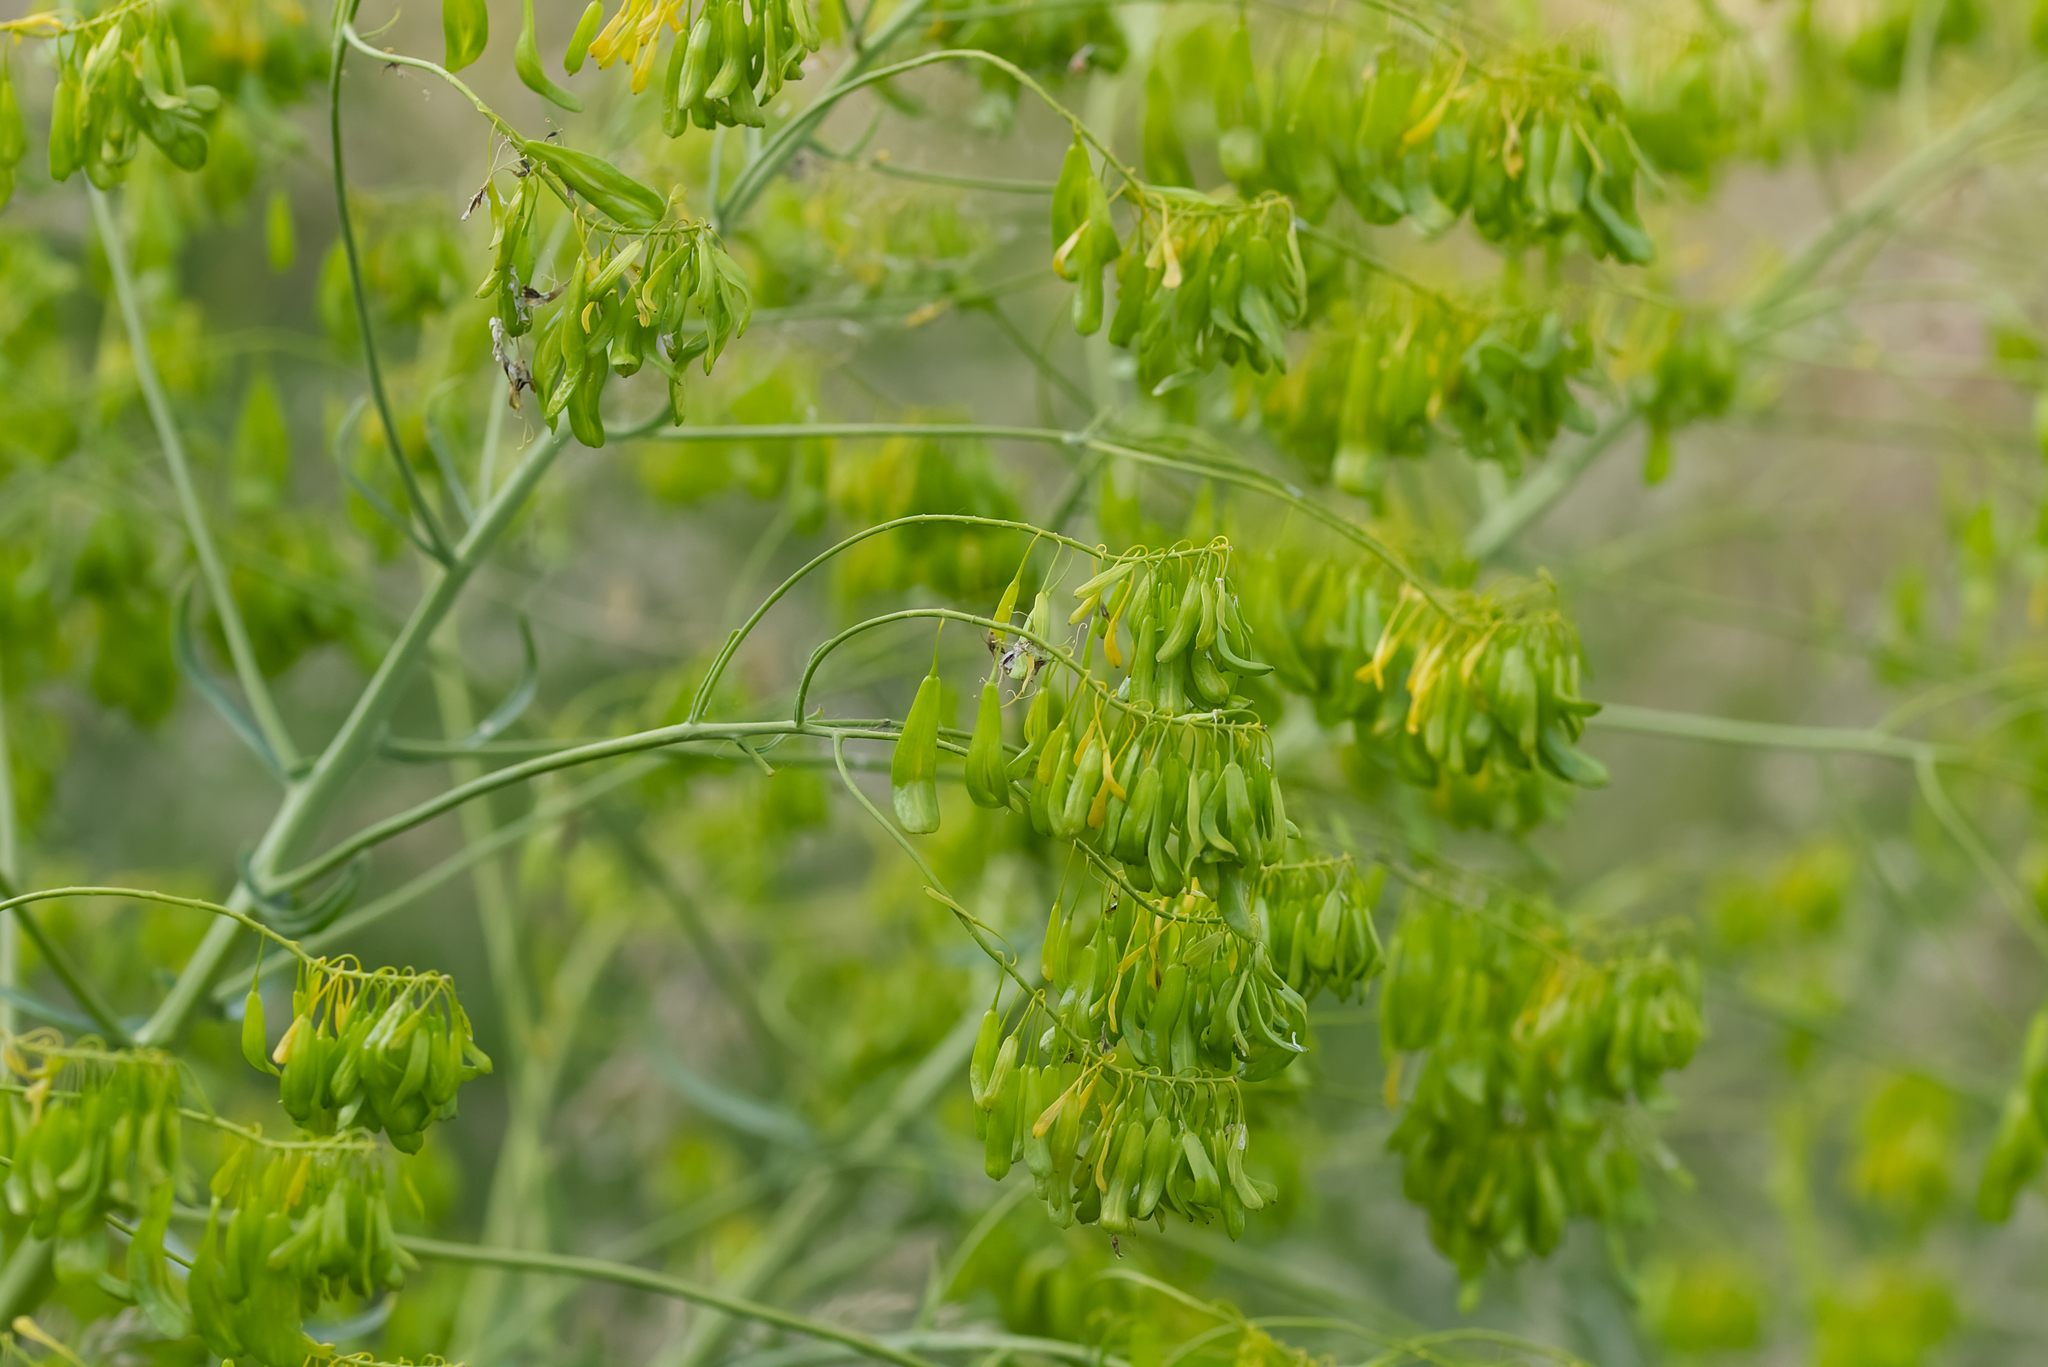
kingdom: Plantae
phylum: Tracheophyta
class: Magnoliopsida
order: Brassicales
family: Brassicaceae
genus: Isatis
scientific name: Isatis tinctoria
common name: Woad
